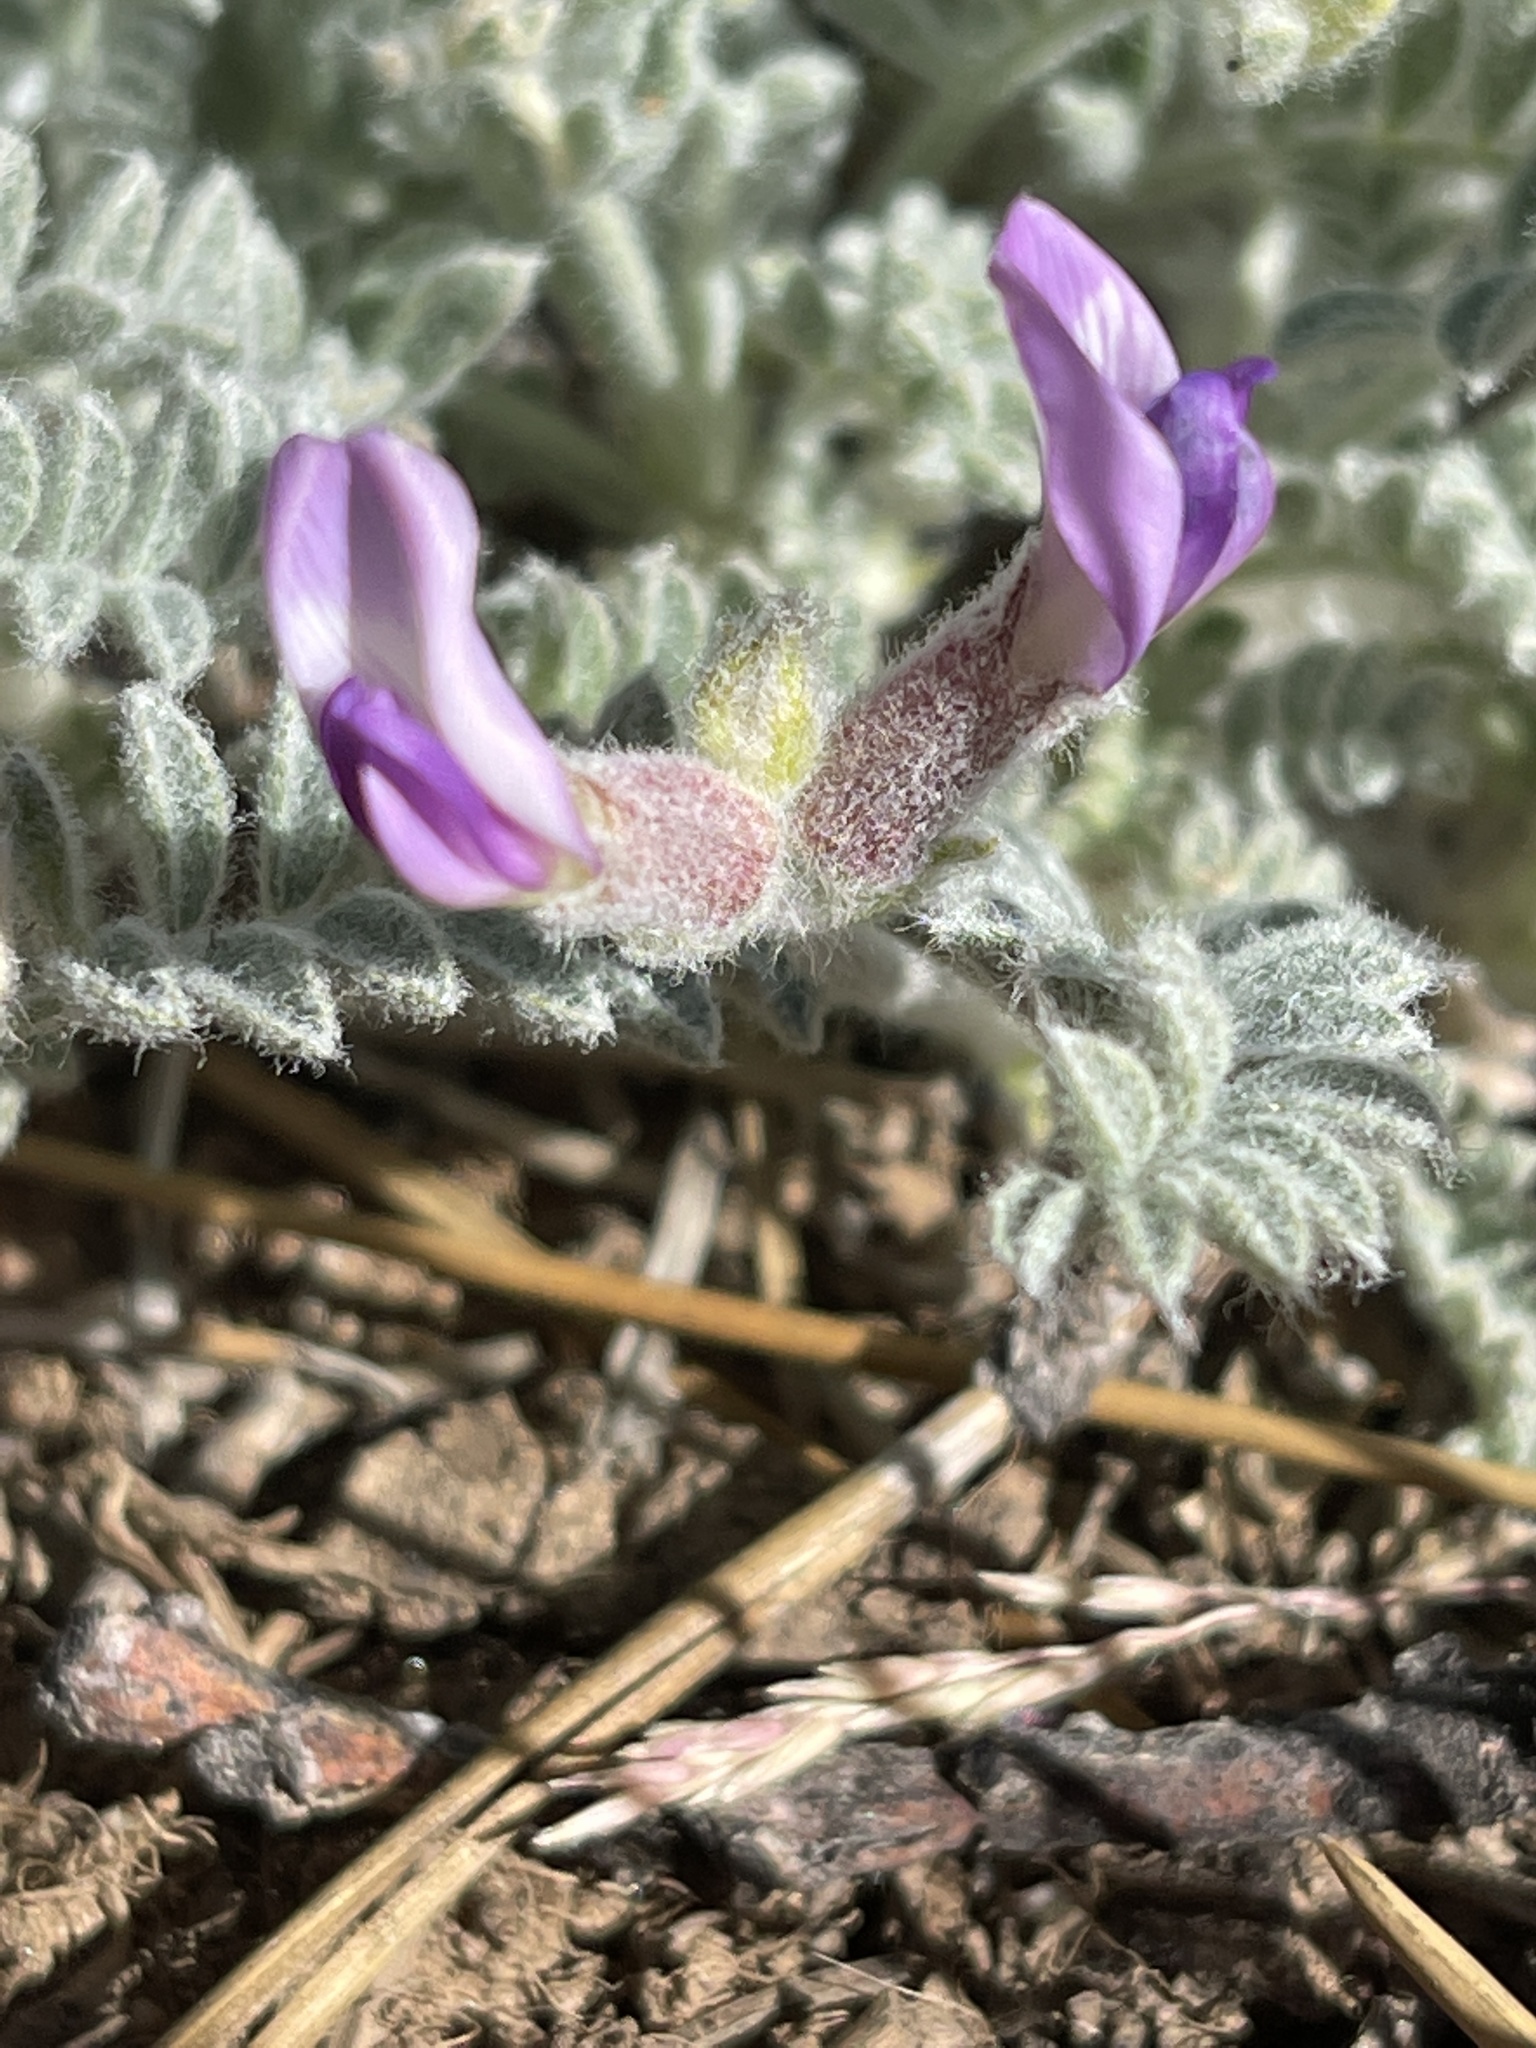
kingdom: Plantae
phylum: Tracheophyta
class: Magnoliopsida
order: Fabales
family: Fabaceae
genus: Astragalus
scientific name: Astragalus leucolobus
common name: Big bear valley woollypod
